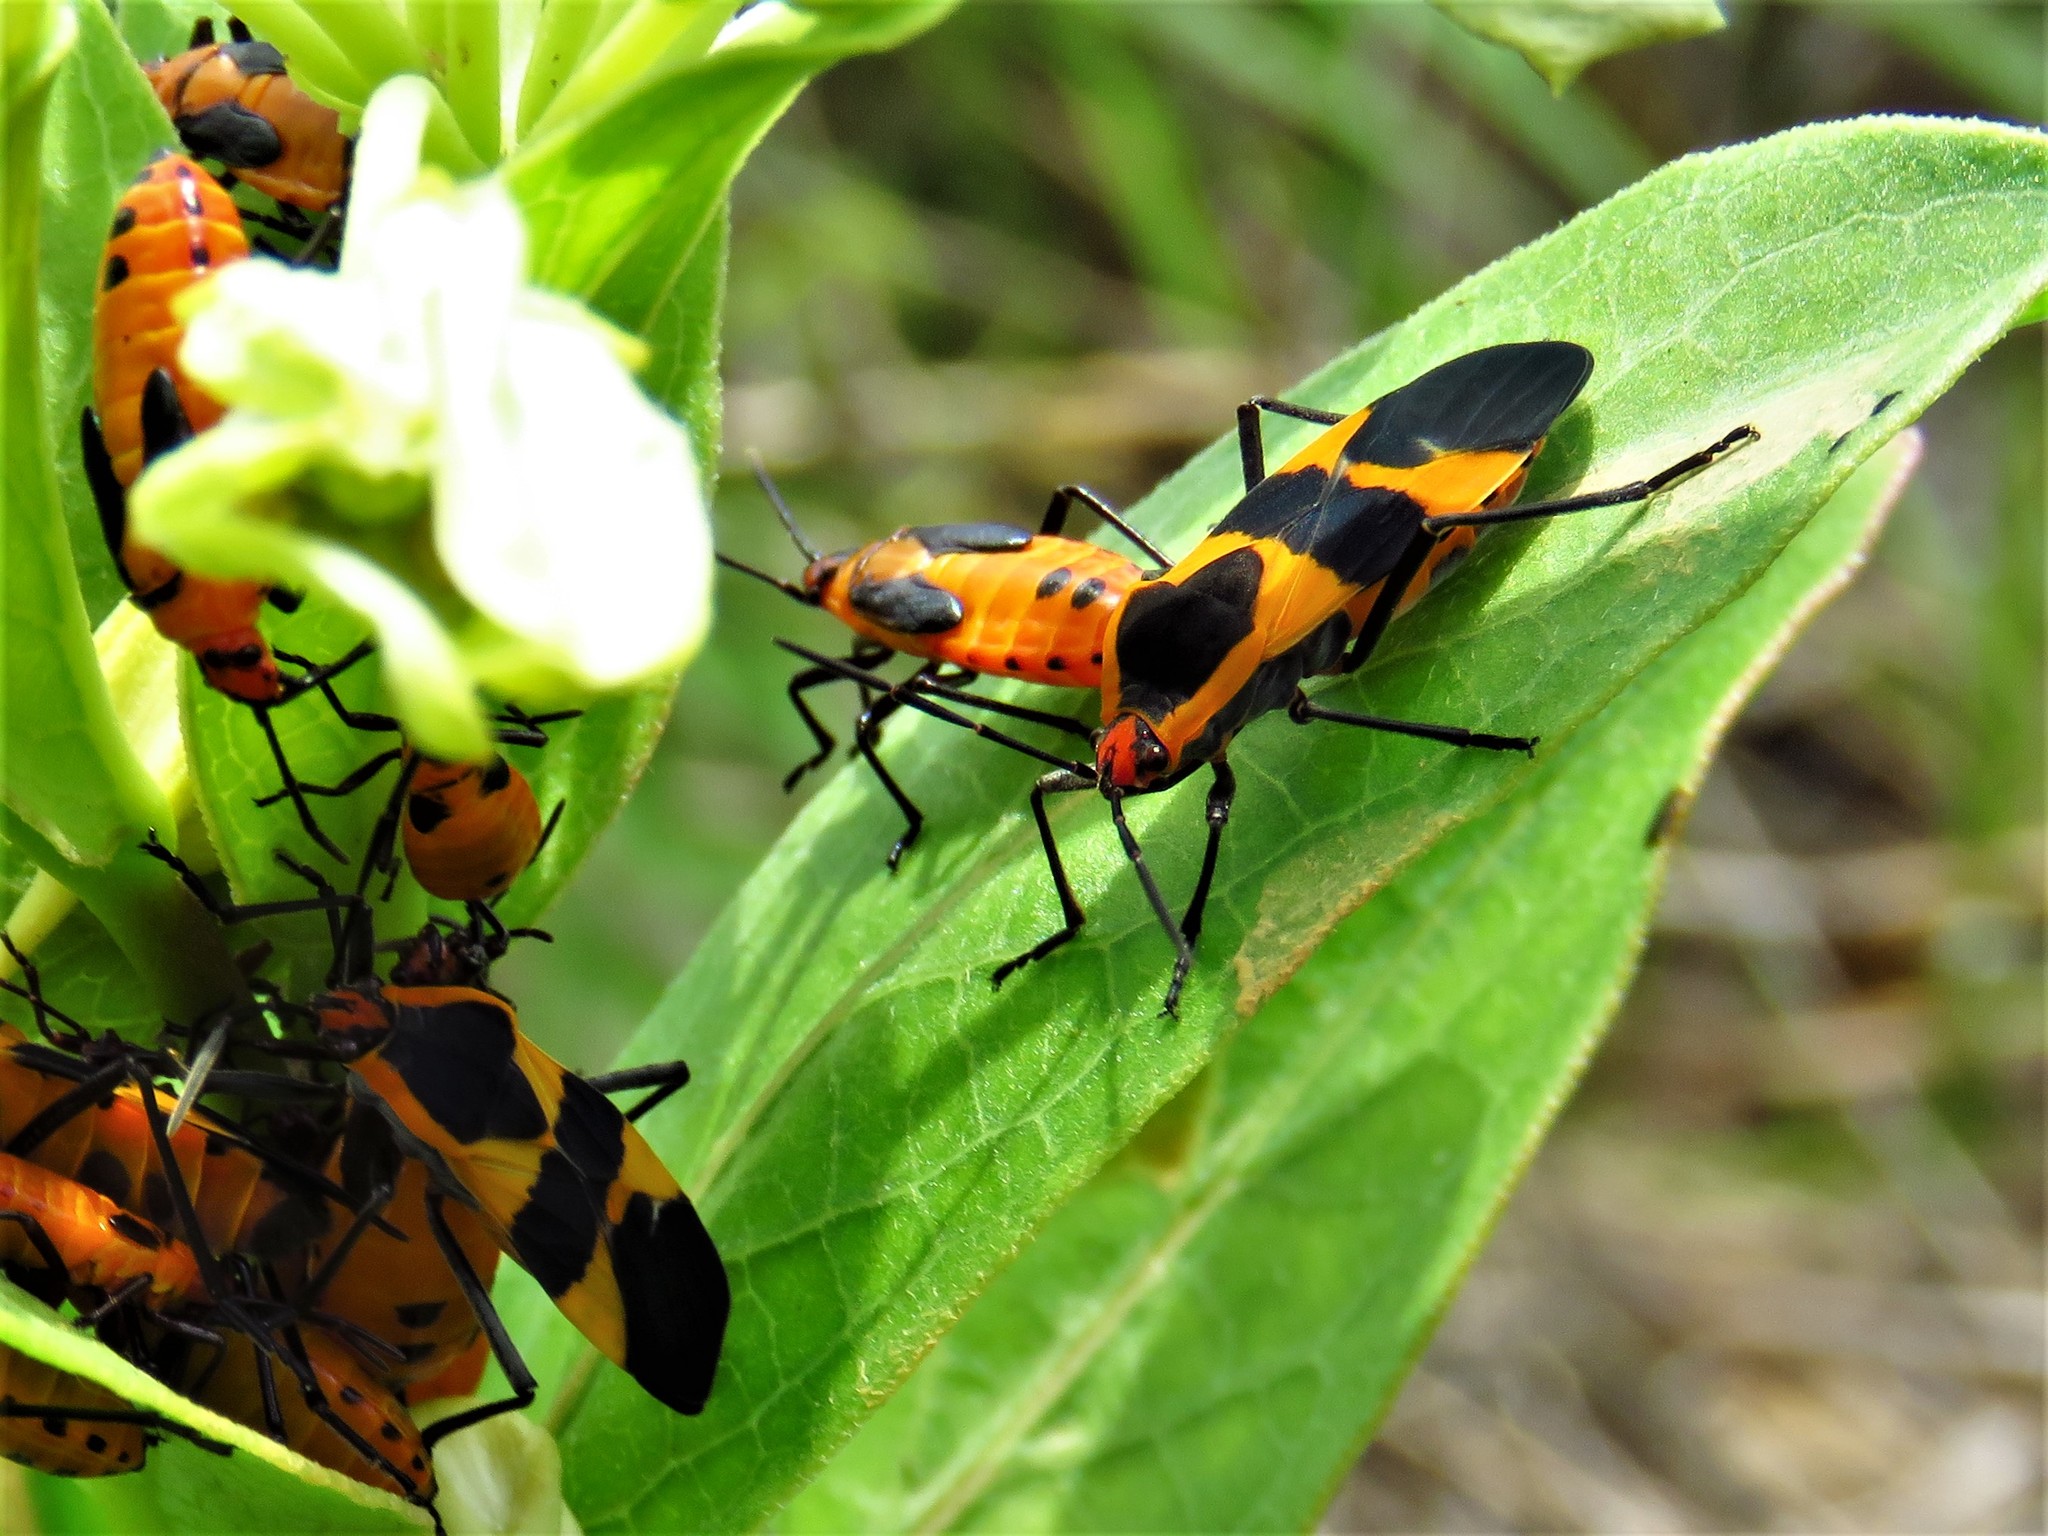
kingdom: Animalia
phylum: Arthropoda
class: Insecta
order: Hemiptera
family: Lygaeidae
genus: Oncopeltus
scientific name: Oncopeltus fasciatus
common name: Large milkweed bug
